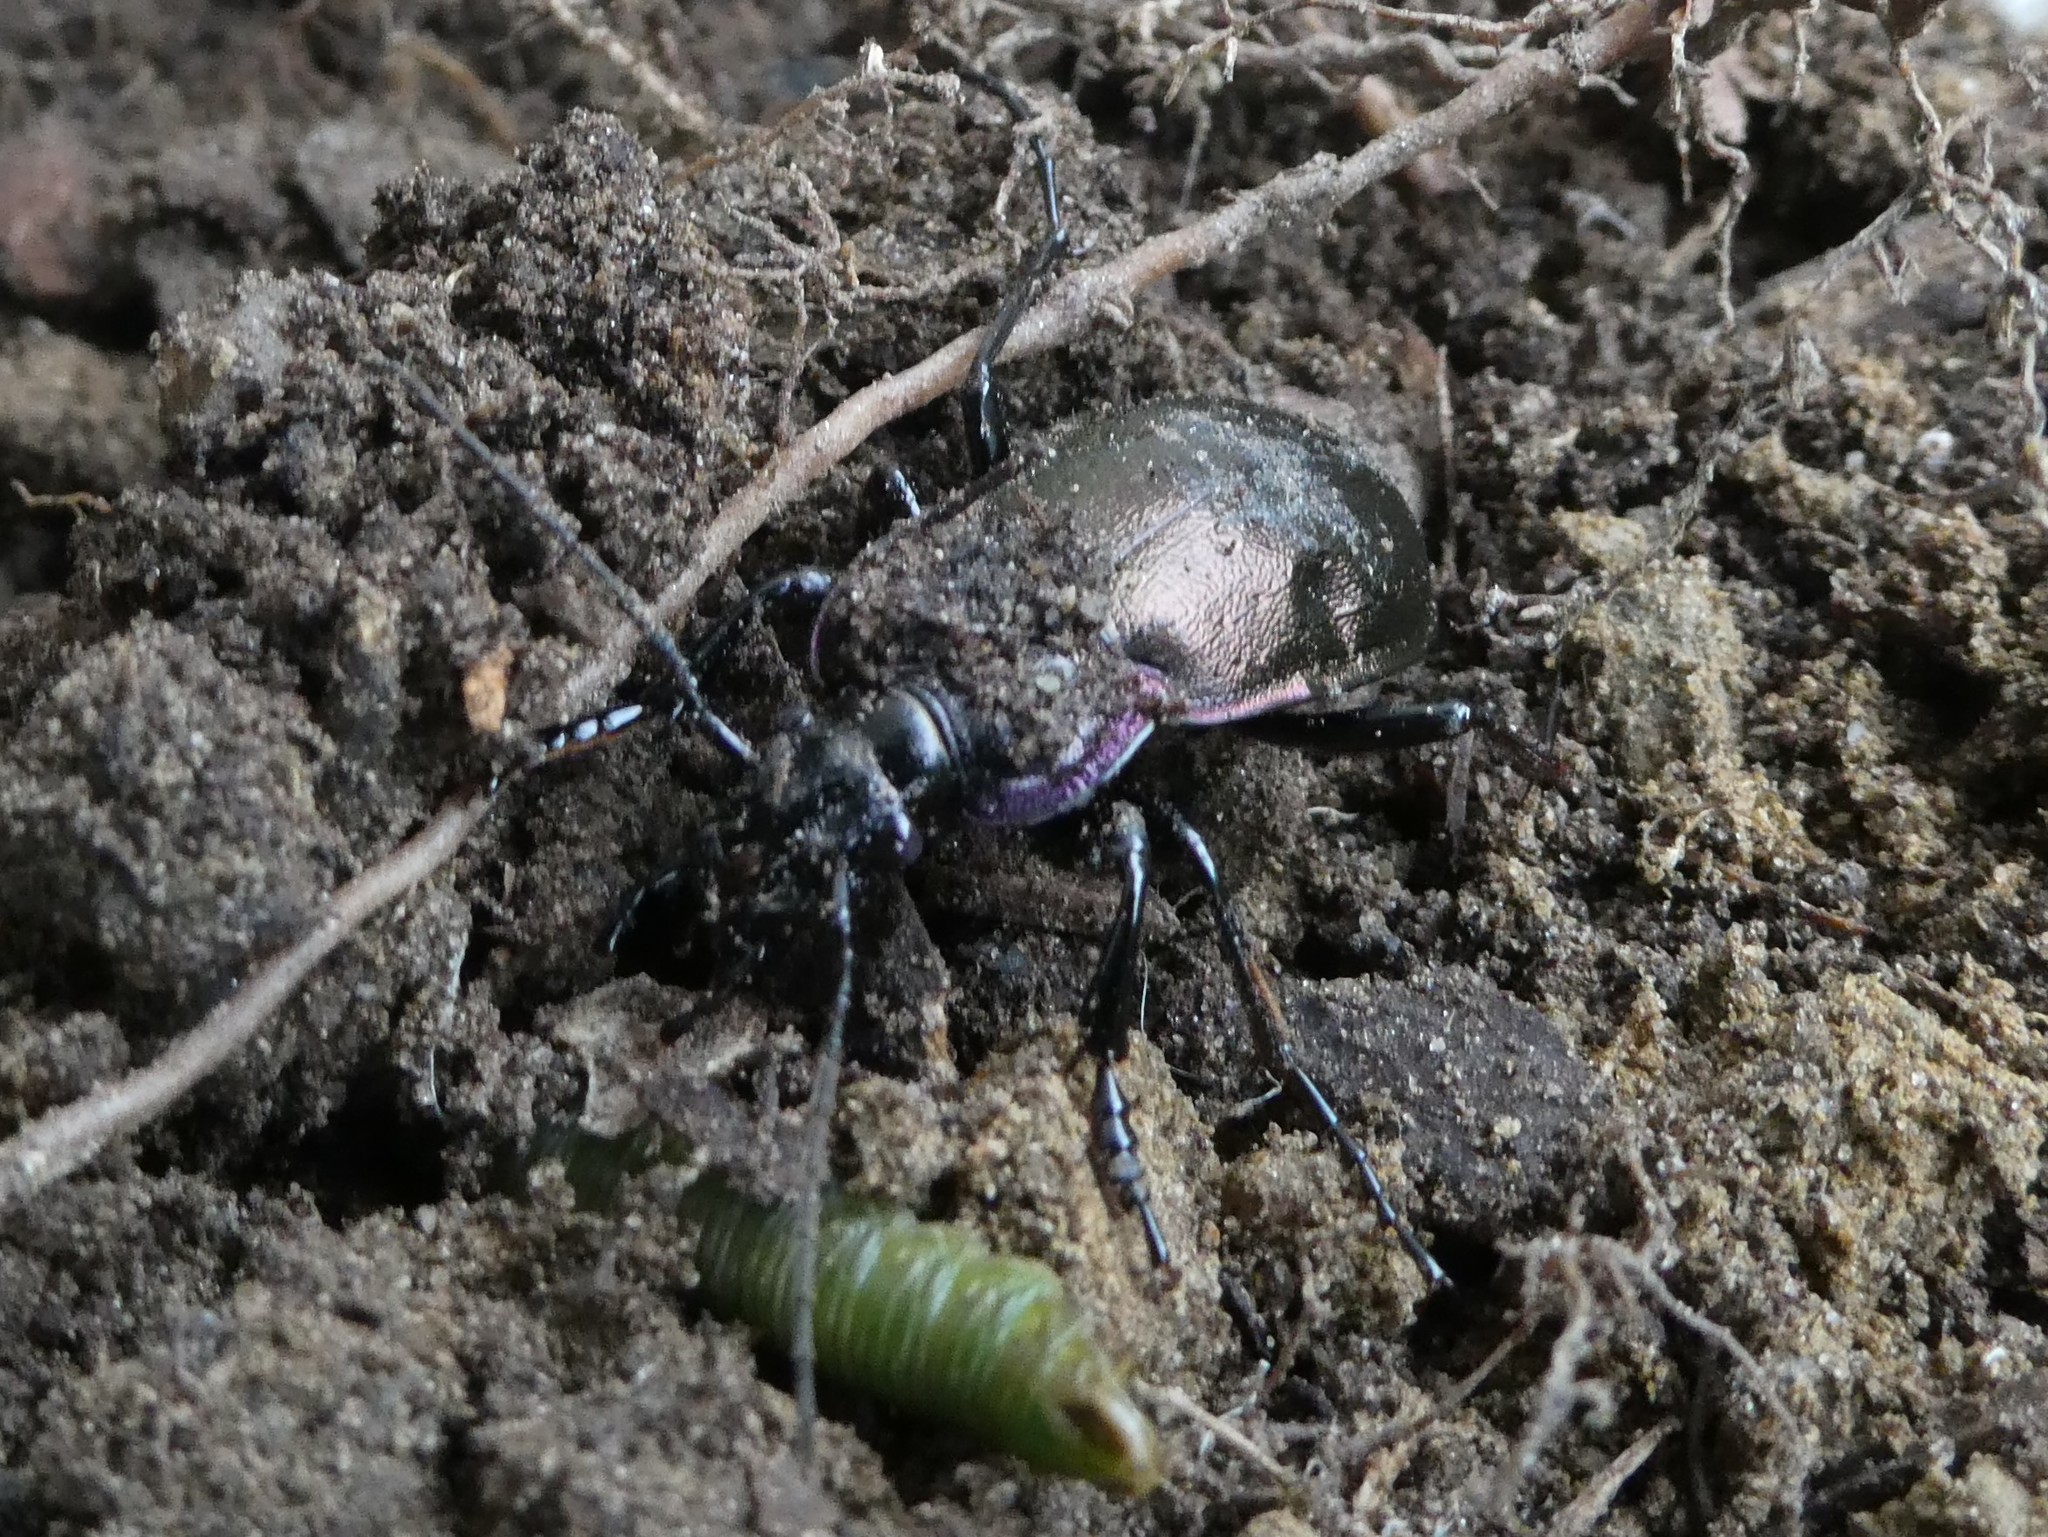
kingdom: Animalia
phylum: Arthropoda
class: Insecta
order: Coleoptera
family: Carabidae
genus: Carabus
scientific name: Carabus nemoralis
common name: European ground beetle
